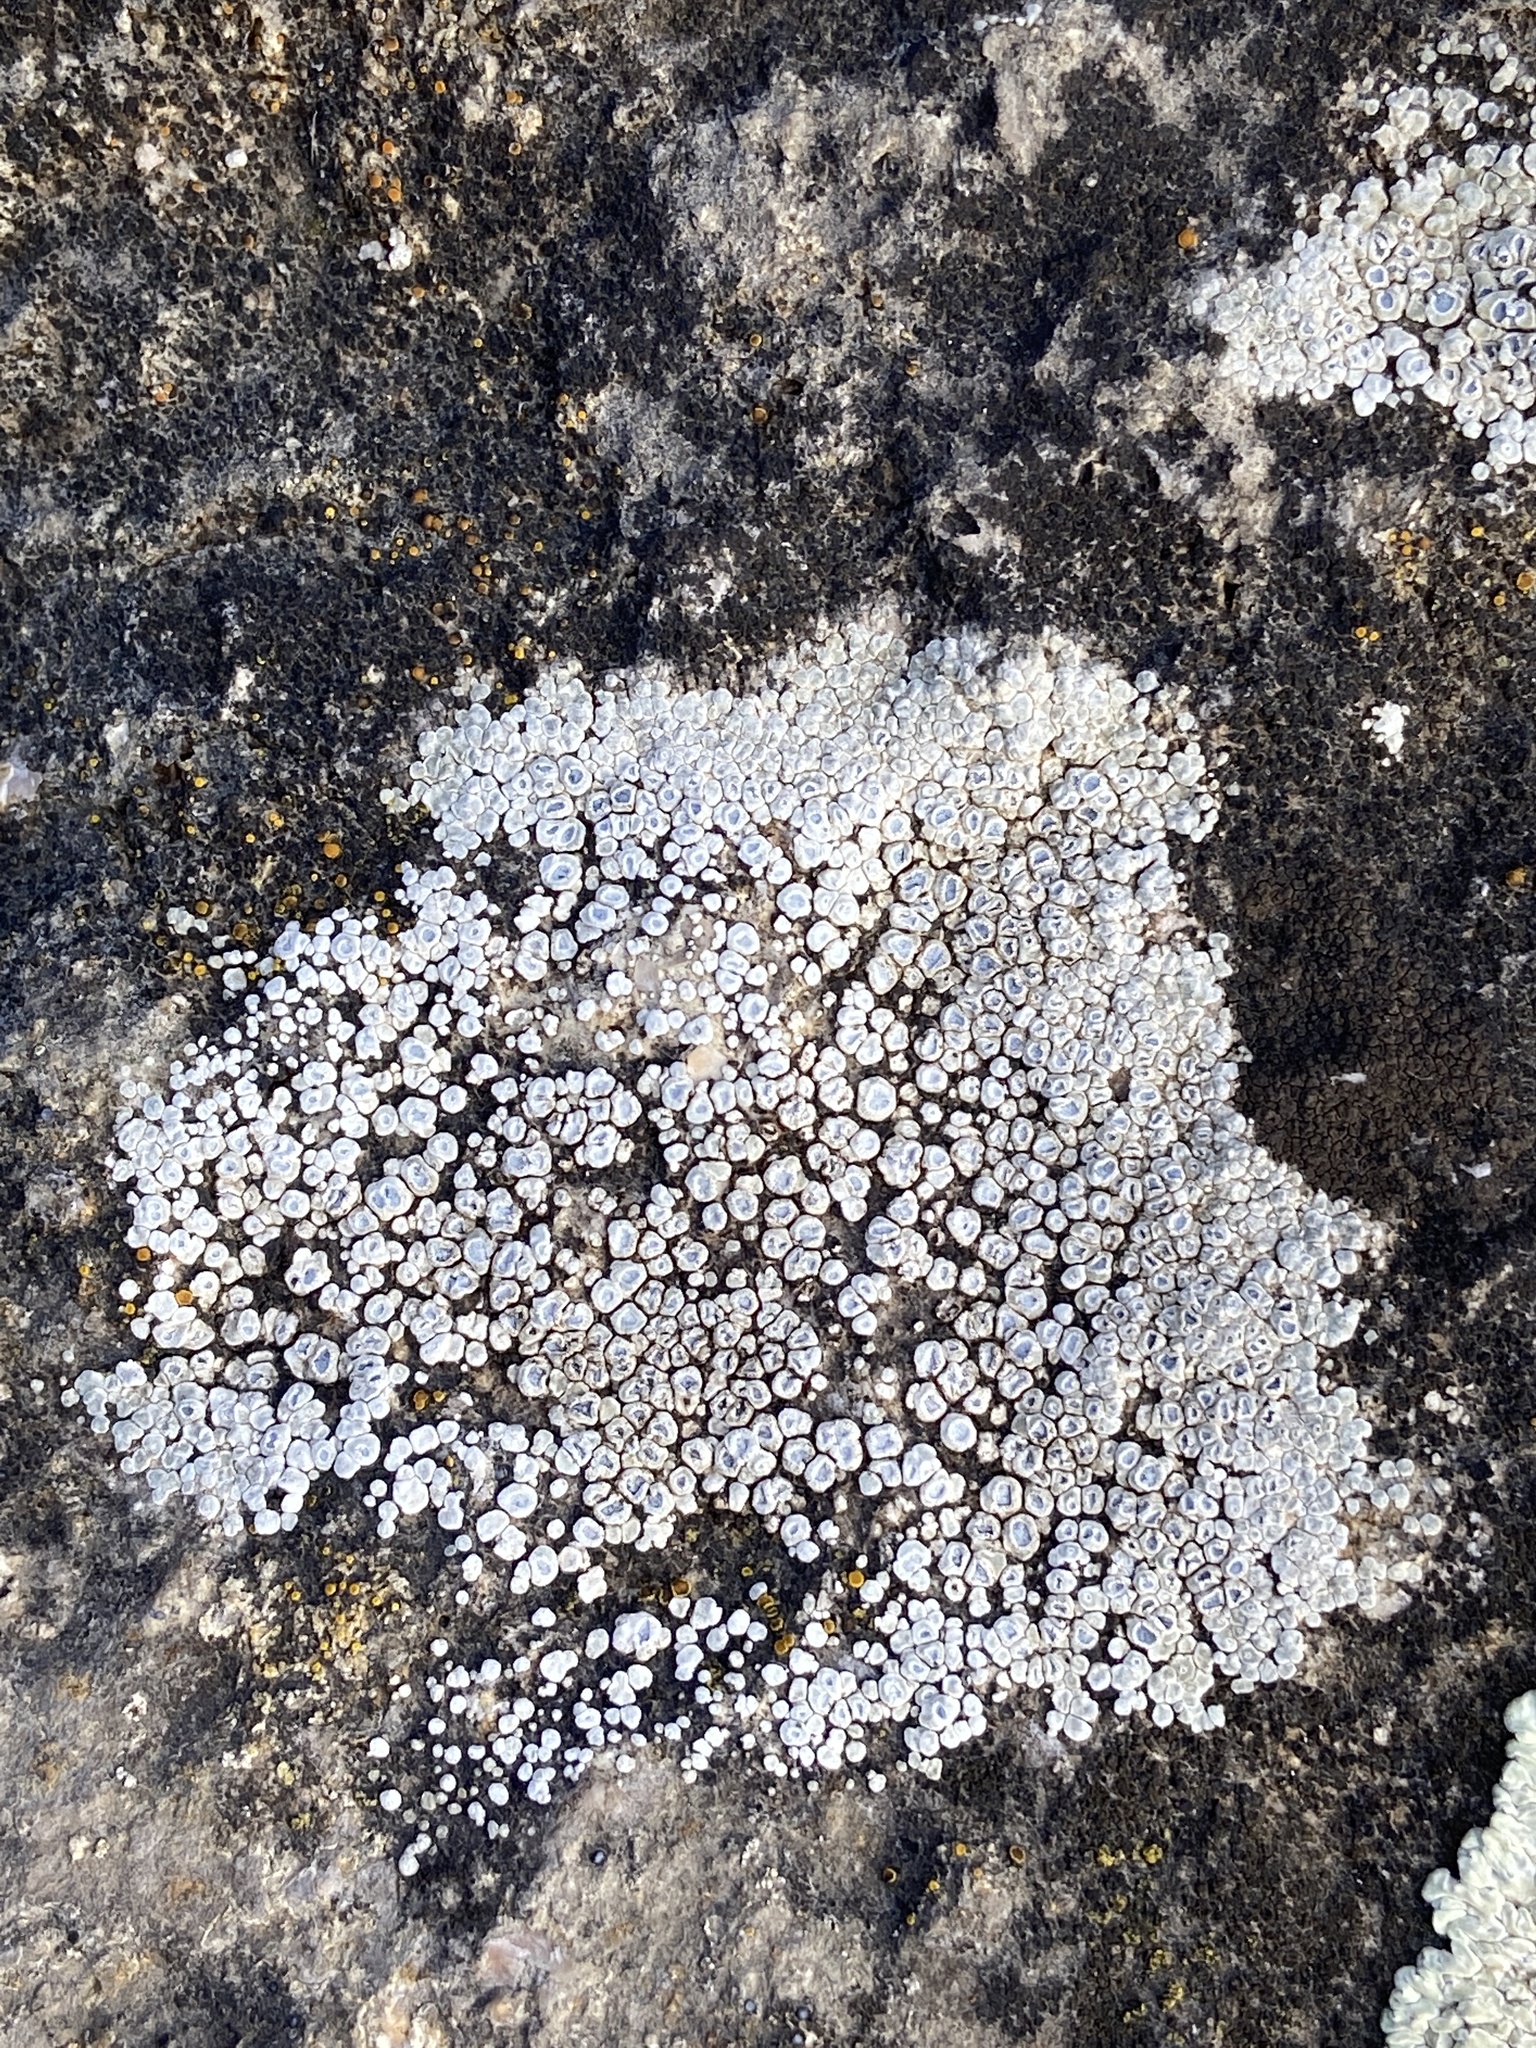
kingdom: Fungi
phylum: Ascomycota
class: Lecanoromycetes
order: Pertusariales
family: Megasporaceae
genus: Circinaria
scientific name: Circinaria contorta
